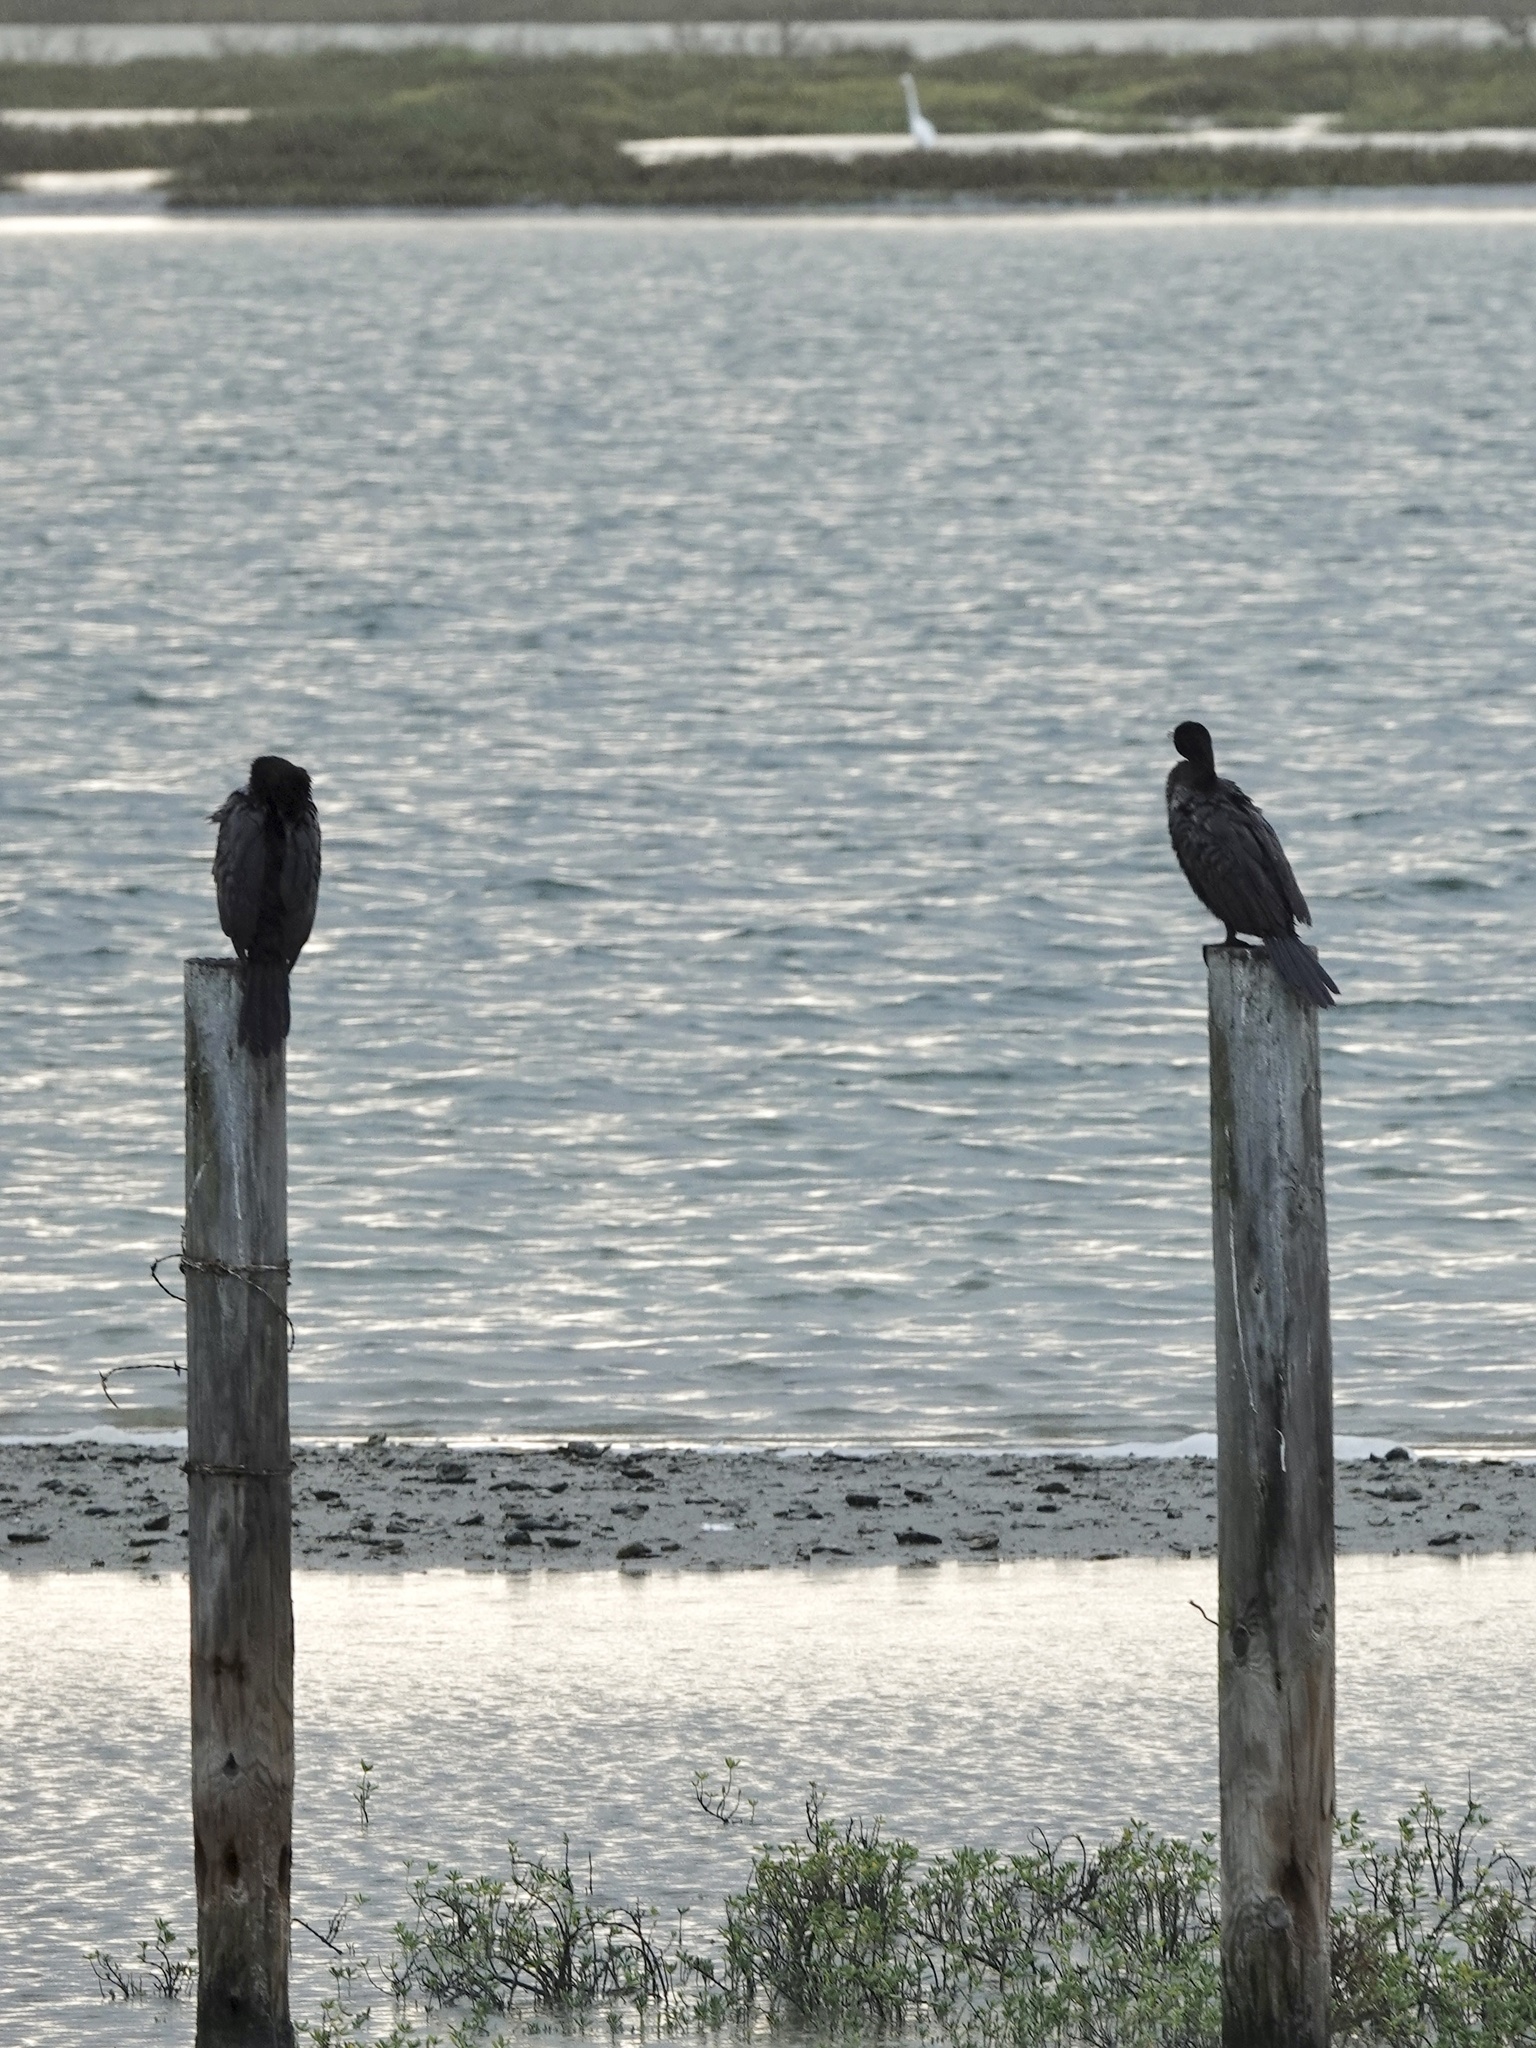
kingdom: Animalia
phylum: Chordata
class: Aves
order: Suliformes
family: Phalacrocoracidae
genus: Phalacrocorax
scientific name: Phalacrocorax brasilianus
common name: Neotropic cormorant
